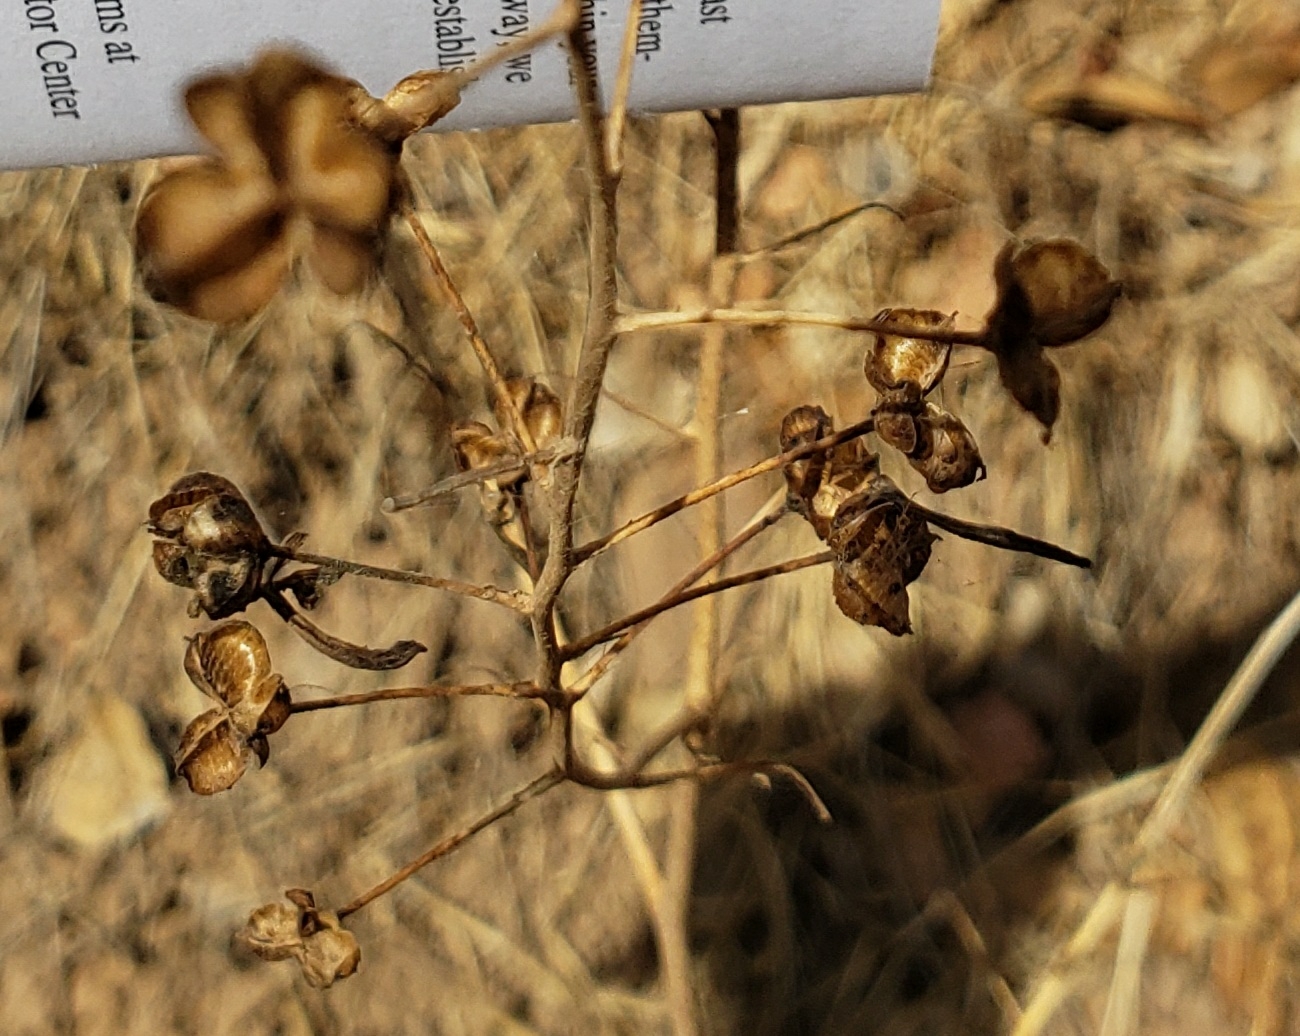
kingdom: Plantae
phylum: Tracheophyta
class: Liliopsida
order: Asparagales
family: Asparagaceae
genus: Chlorogalum
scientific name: Chlorogalum pomeridianum
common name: Amole
